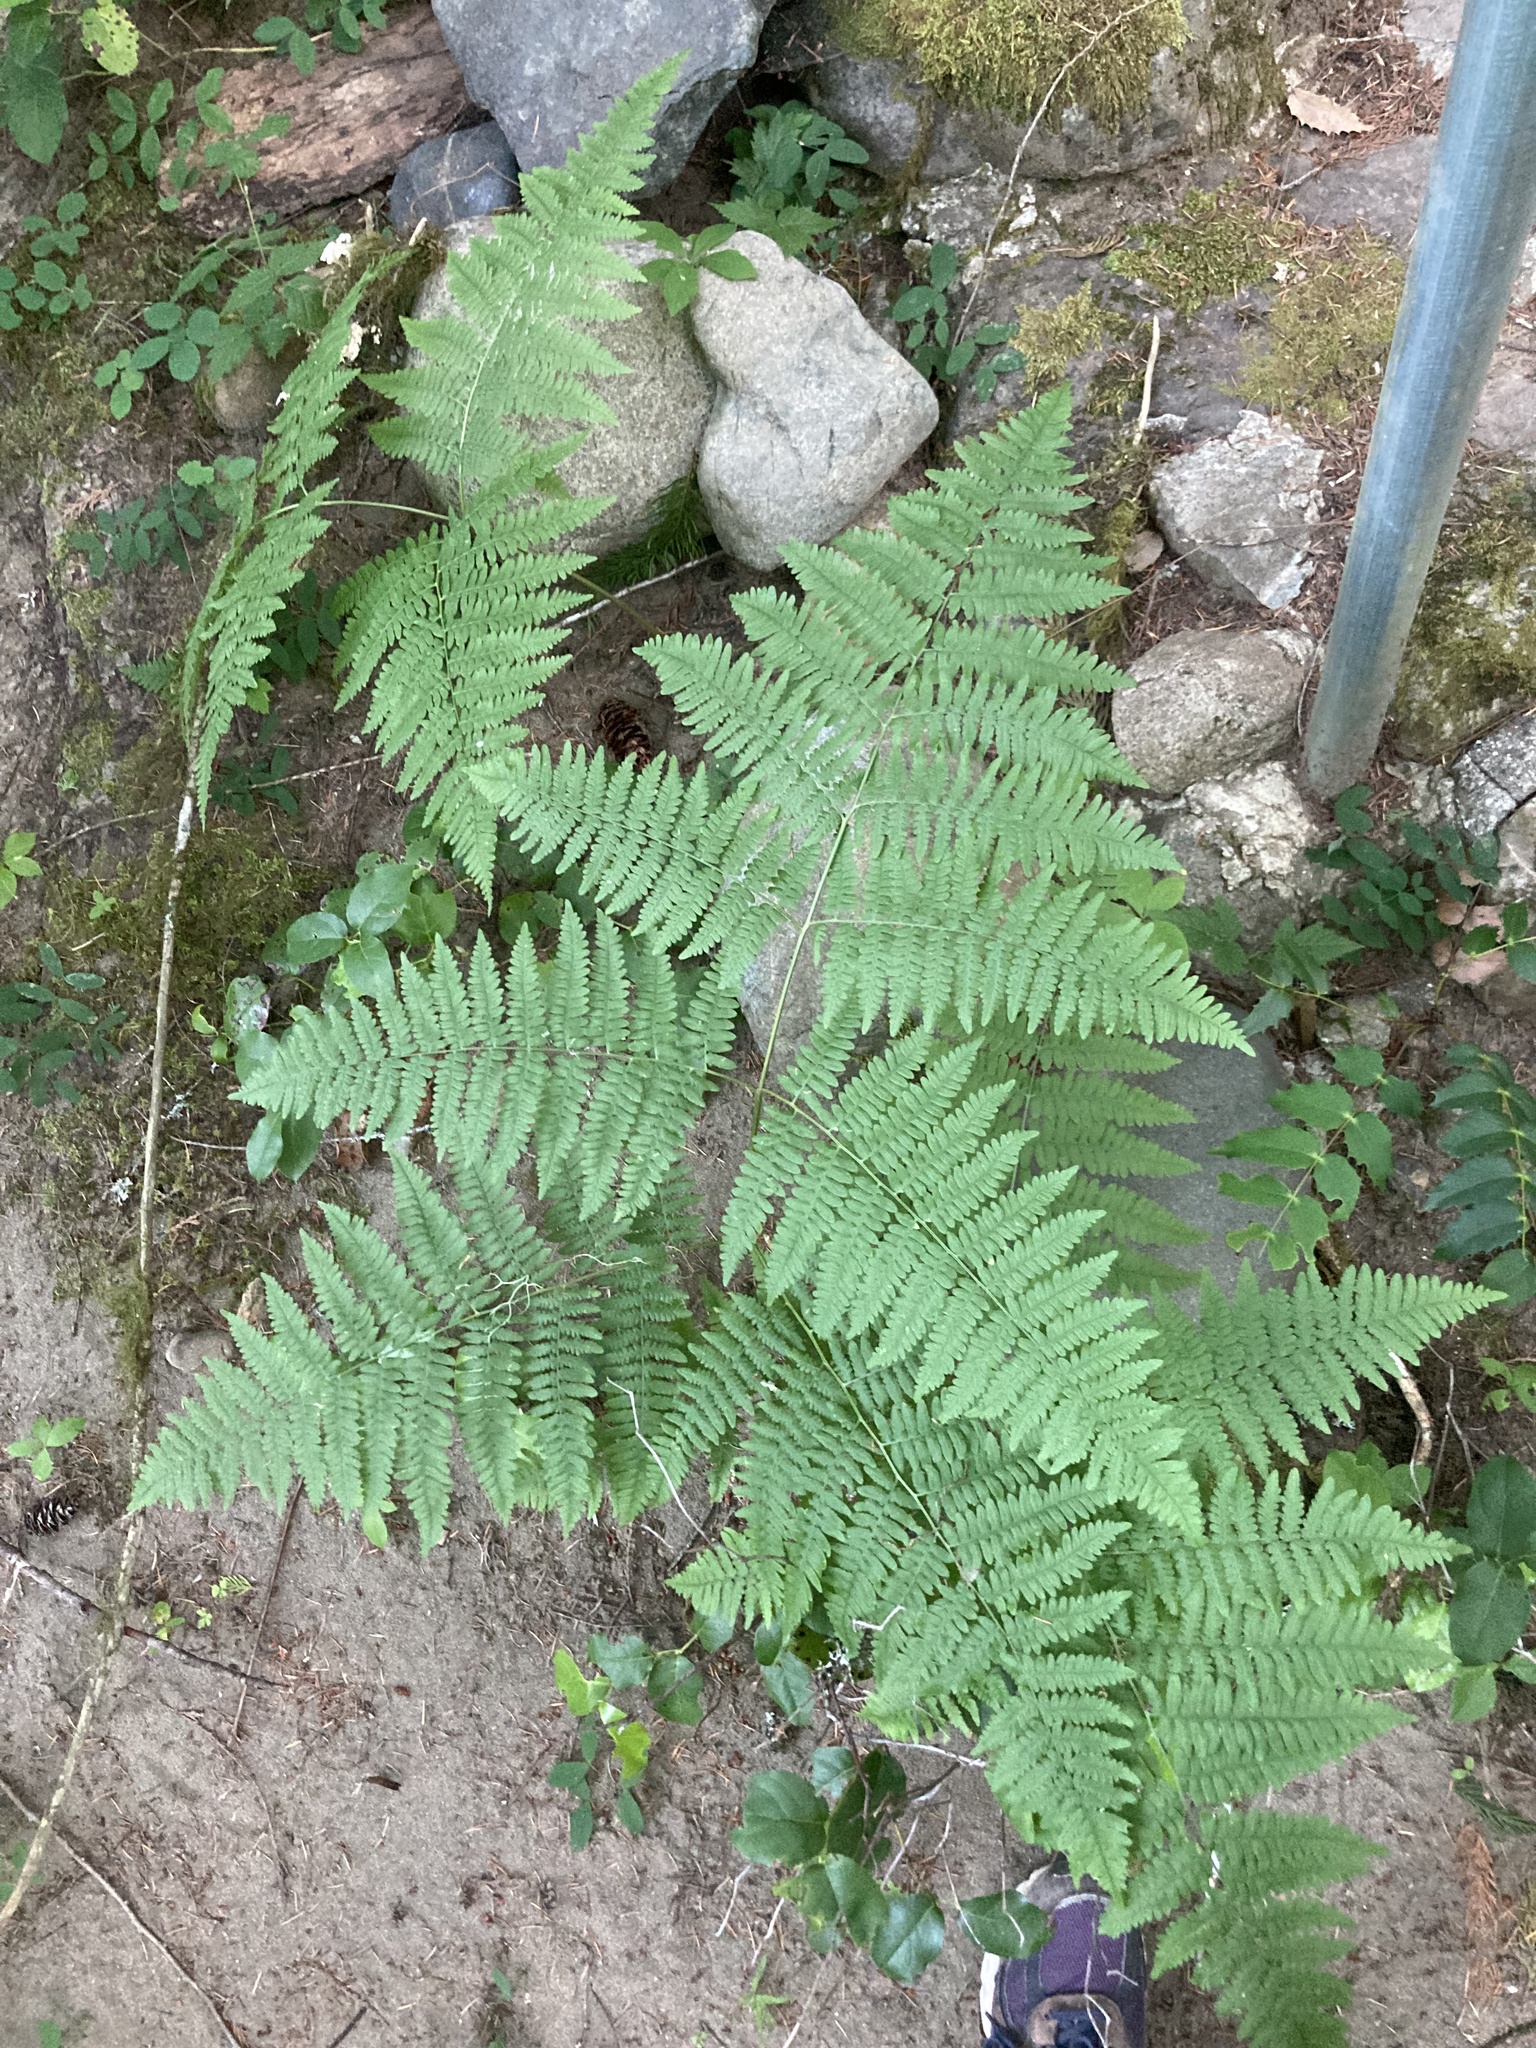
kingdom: Plantae
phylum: Tracheophyta
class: Polypodiopsida
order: Polypodiales
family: Dennstaedtiaceae
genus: Pteridium
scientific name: Pteridium aquilinum
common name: Bracken
